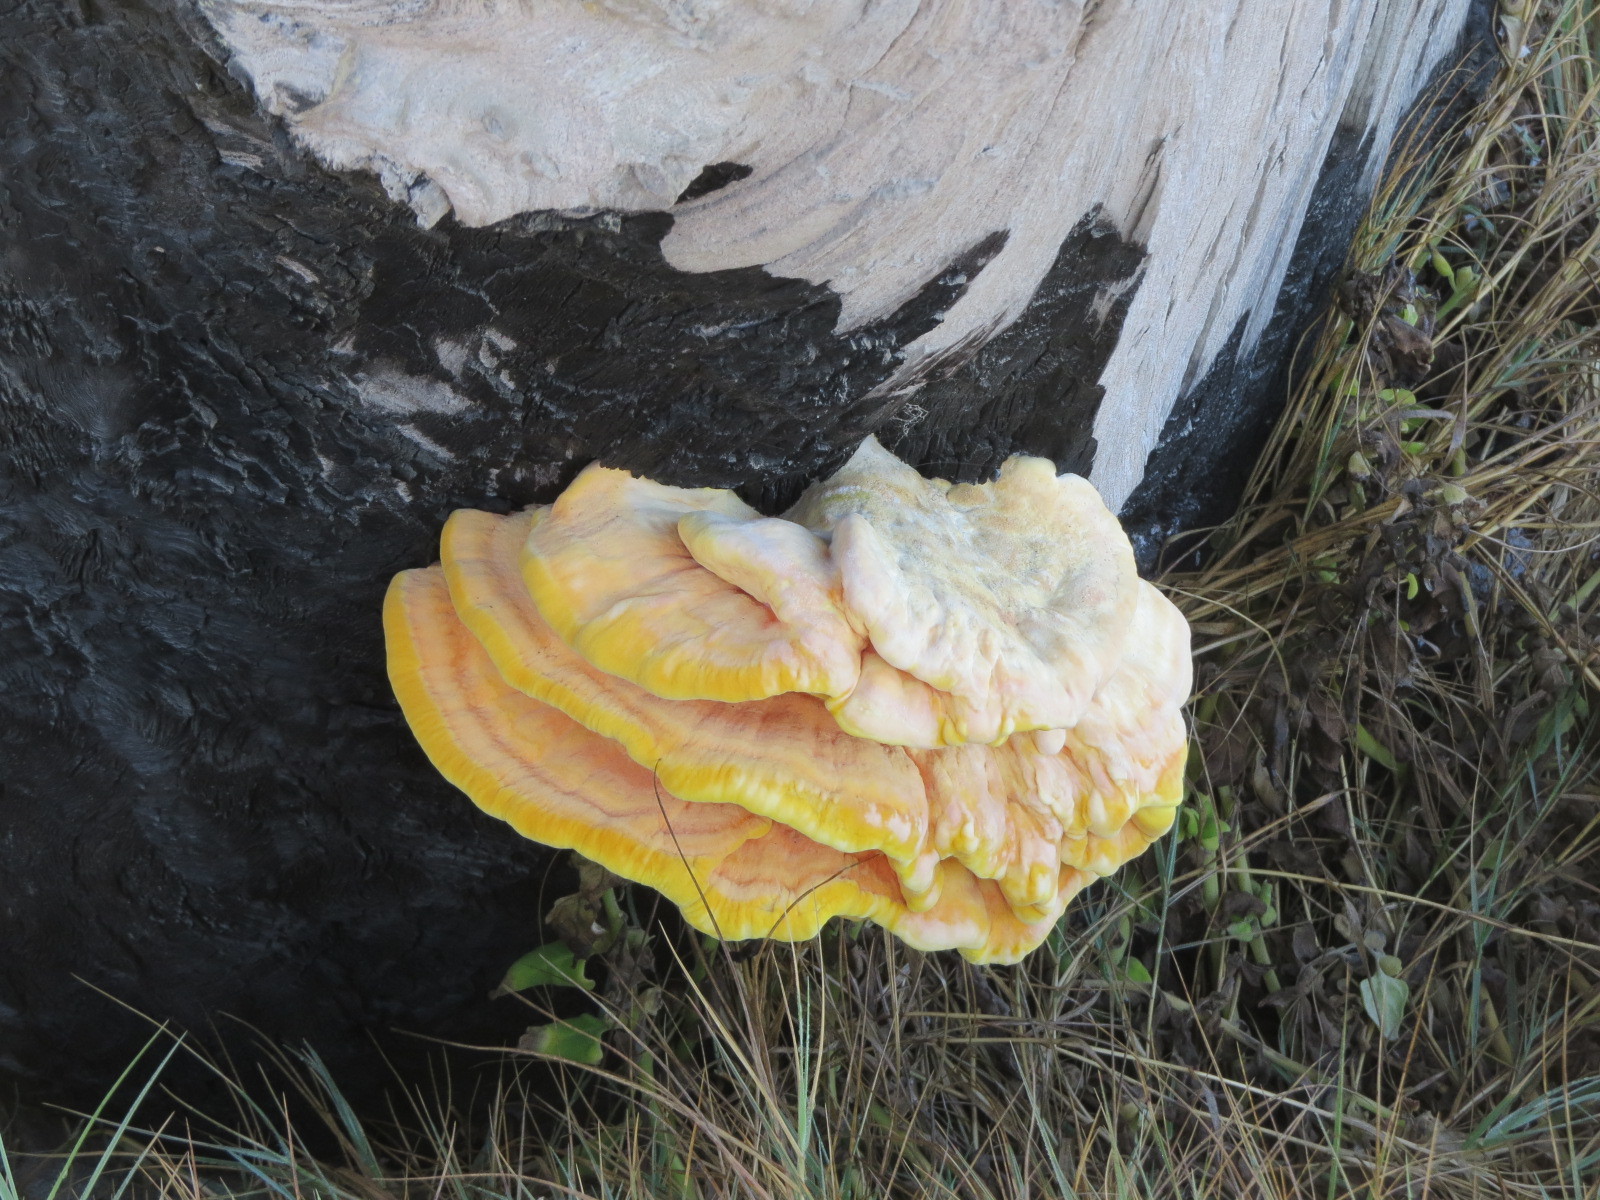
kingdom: Fungi
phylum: Basidiomycota
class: Agaricomycetes
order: Polyporales
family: Laetiporaceae
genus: Laetiporus
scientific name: Laetiporus gilbertsonii
